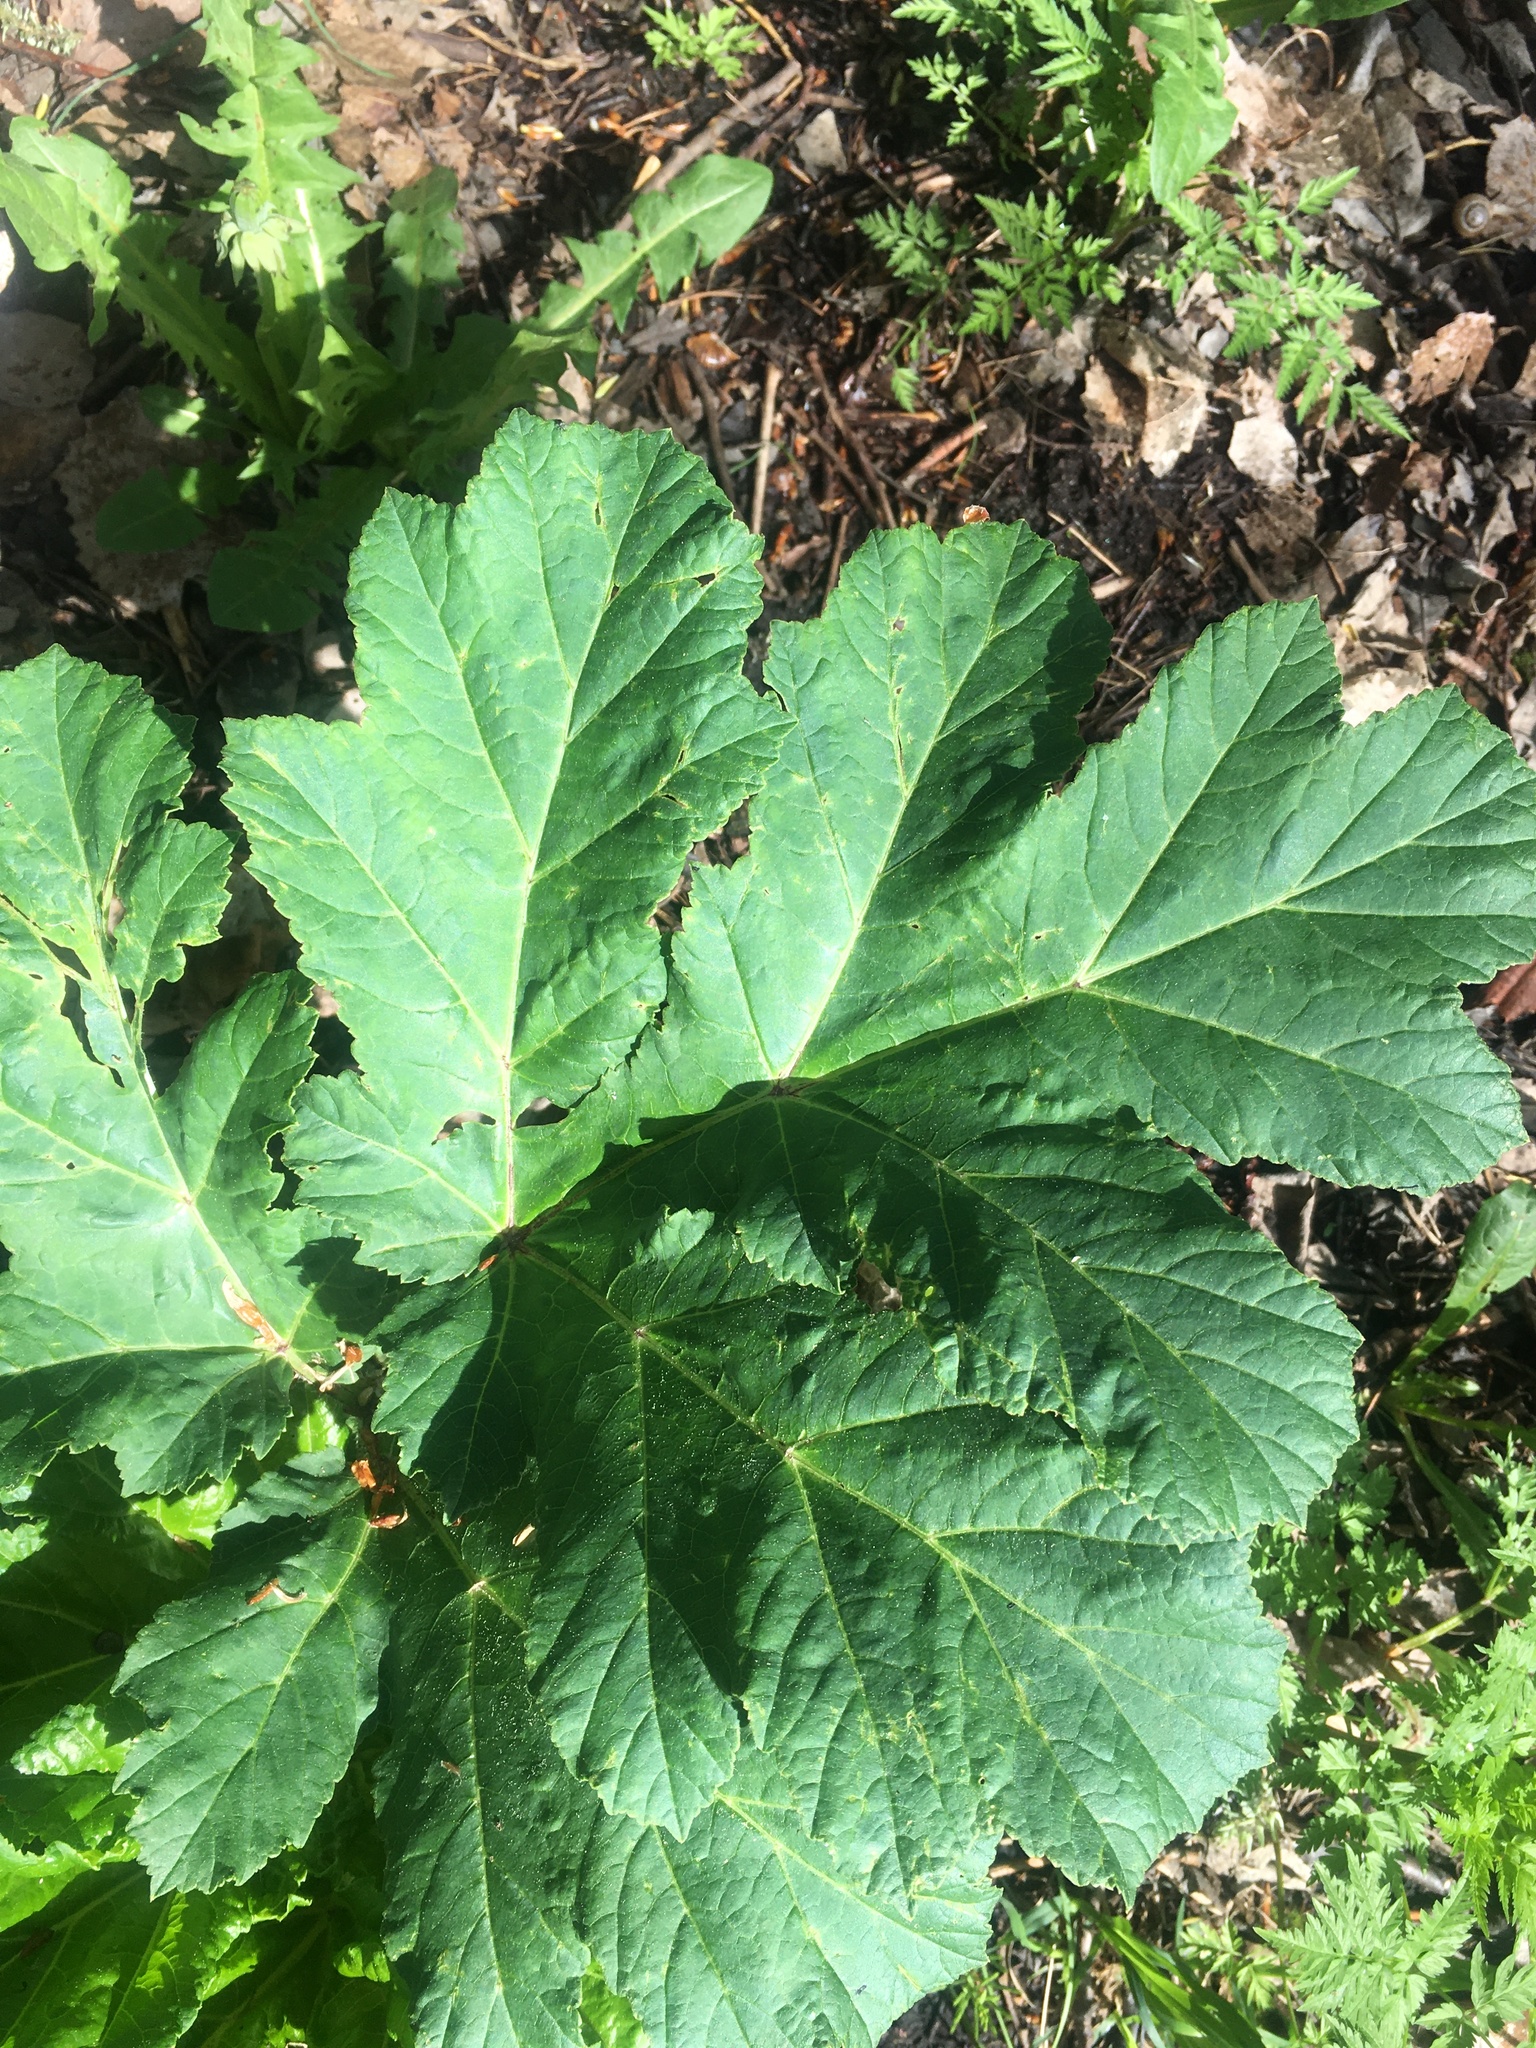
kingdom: Plantae
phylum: Tracheophyta
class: Magnoliopsida
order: Apiales
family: Apiaceae
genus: Heracleum
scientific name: Heracleum sosnowskyi
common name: Sosnowsky's hogweed
